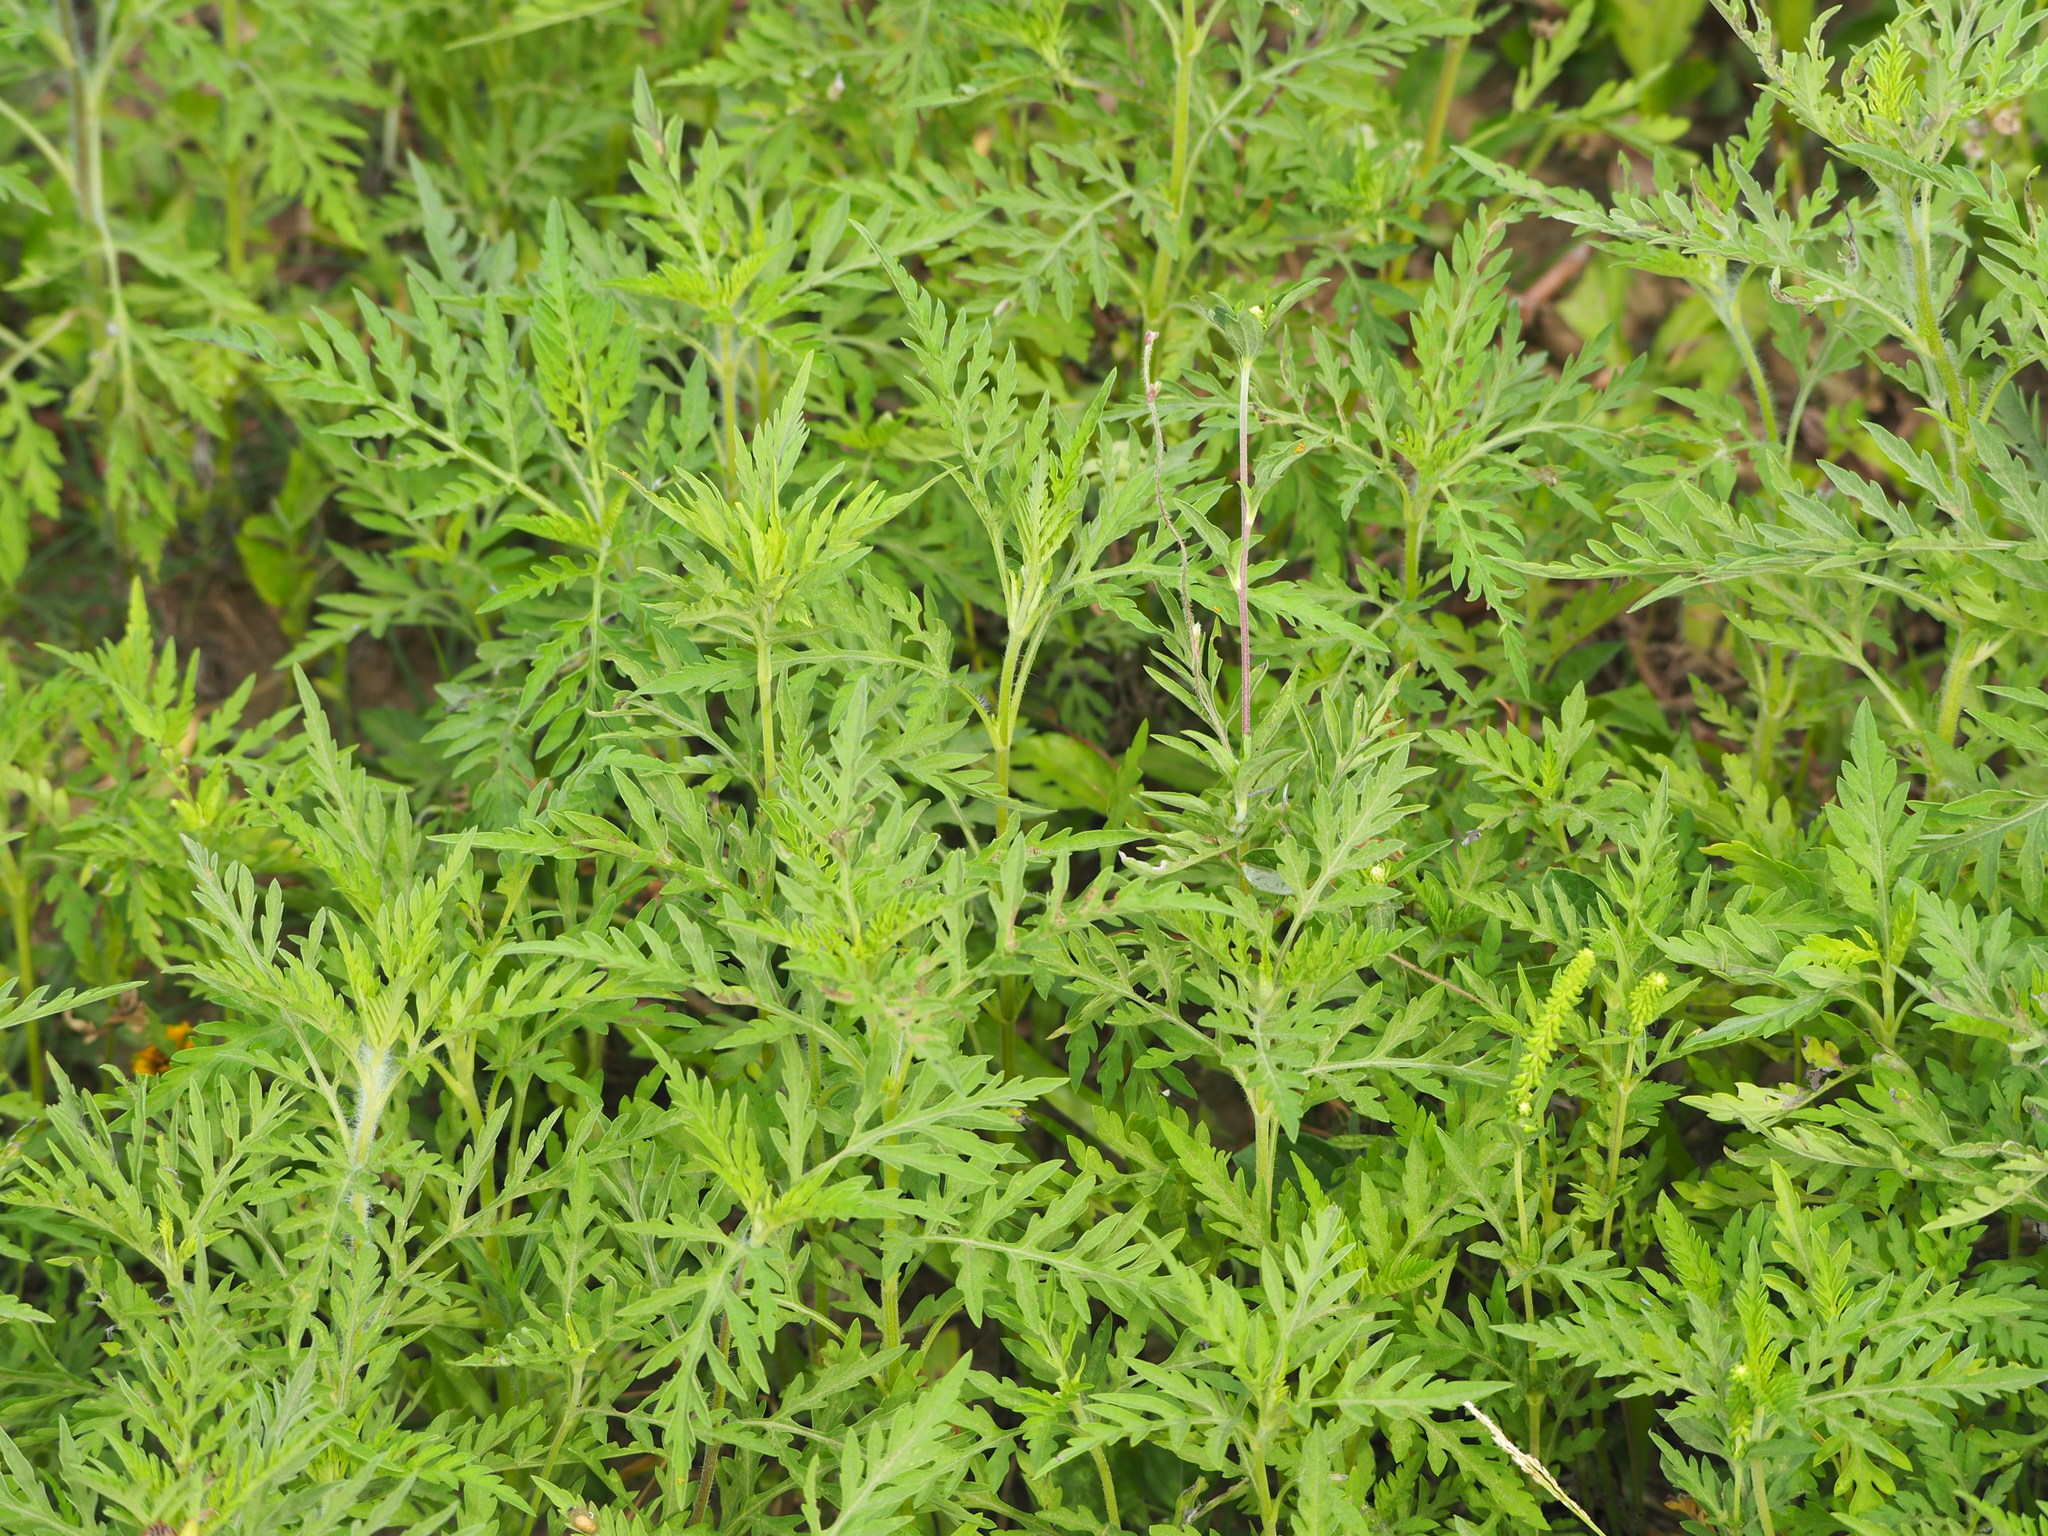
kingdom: Plantae
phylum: Tracheophyta
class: Magnoliopsida
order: Asterales
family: Asteraceae
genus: Ambrosia
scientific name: Ambrosia artemisiifolia
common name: Annual ragweed
